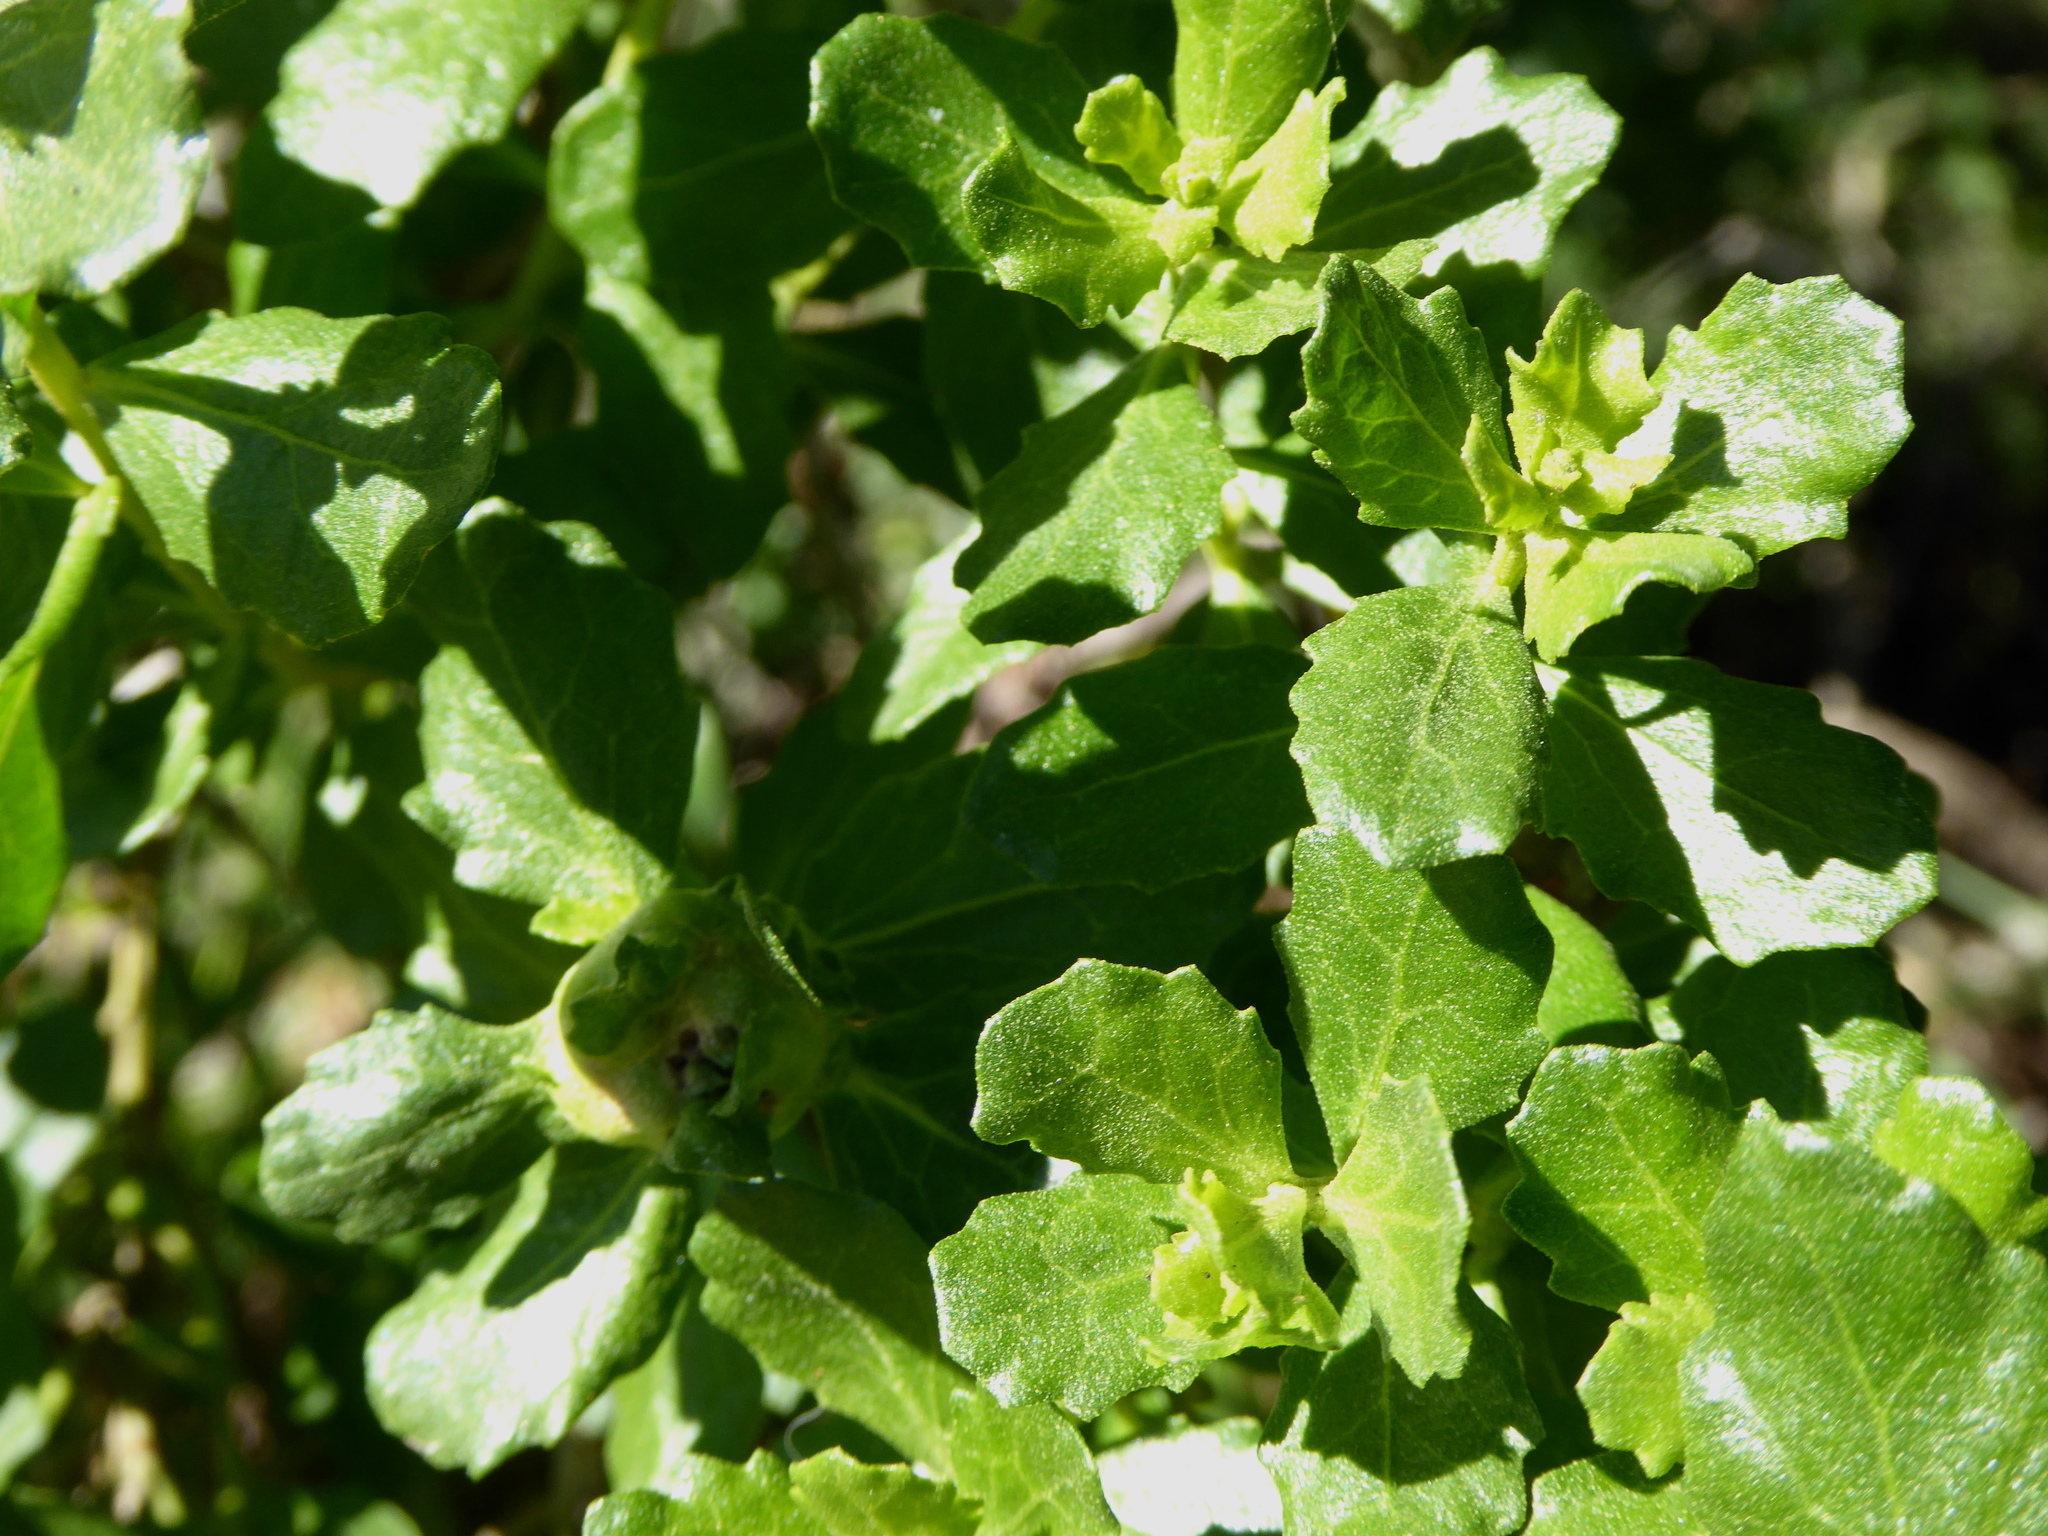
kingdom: Plantae
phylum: Tracheophyta
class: Magnoliopsida
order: Asterales
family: Asteraceae
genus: Baccharis
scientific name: Baccharis pilularis
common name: Coyotebrush
